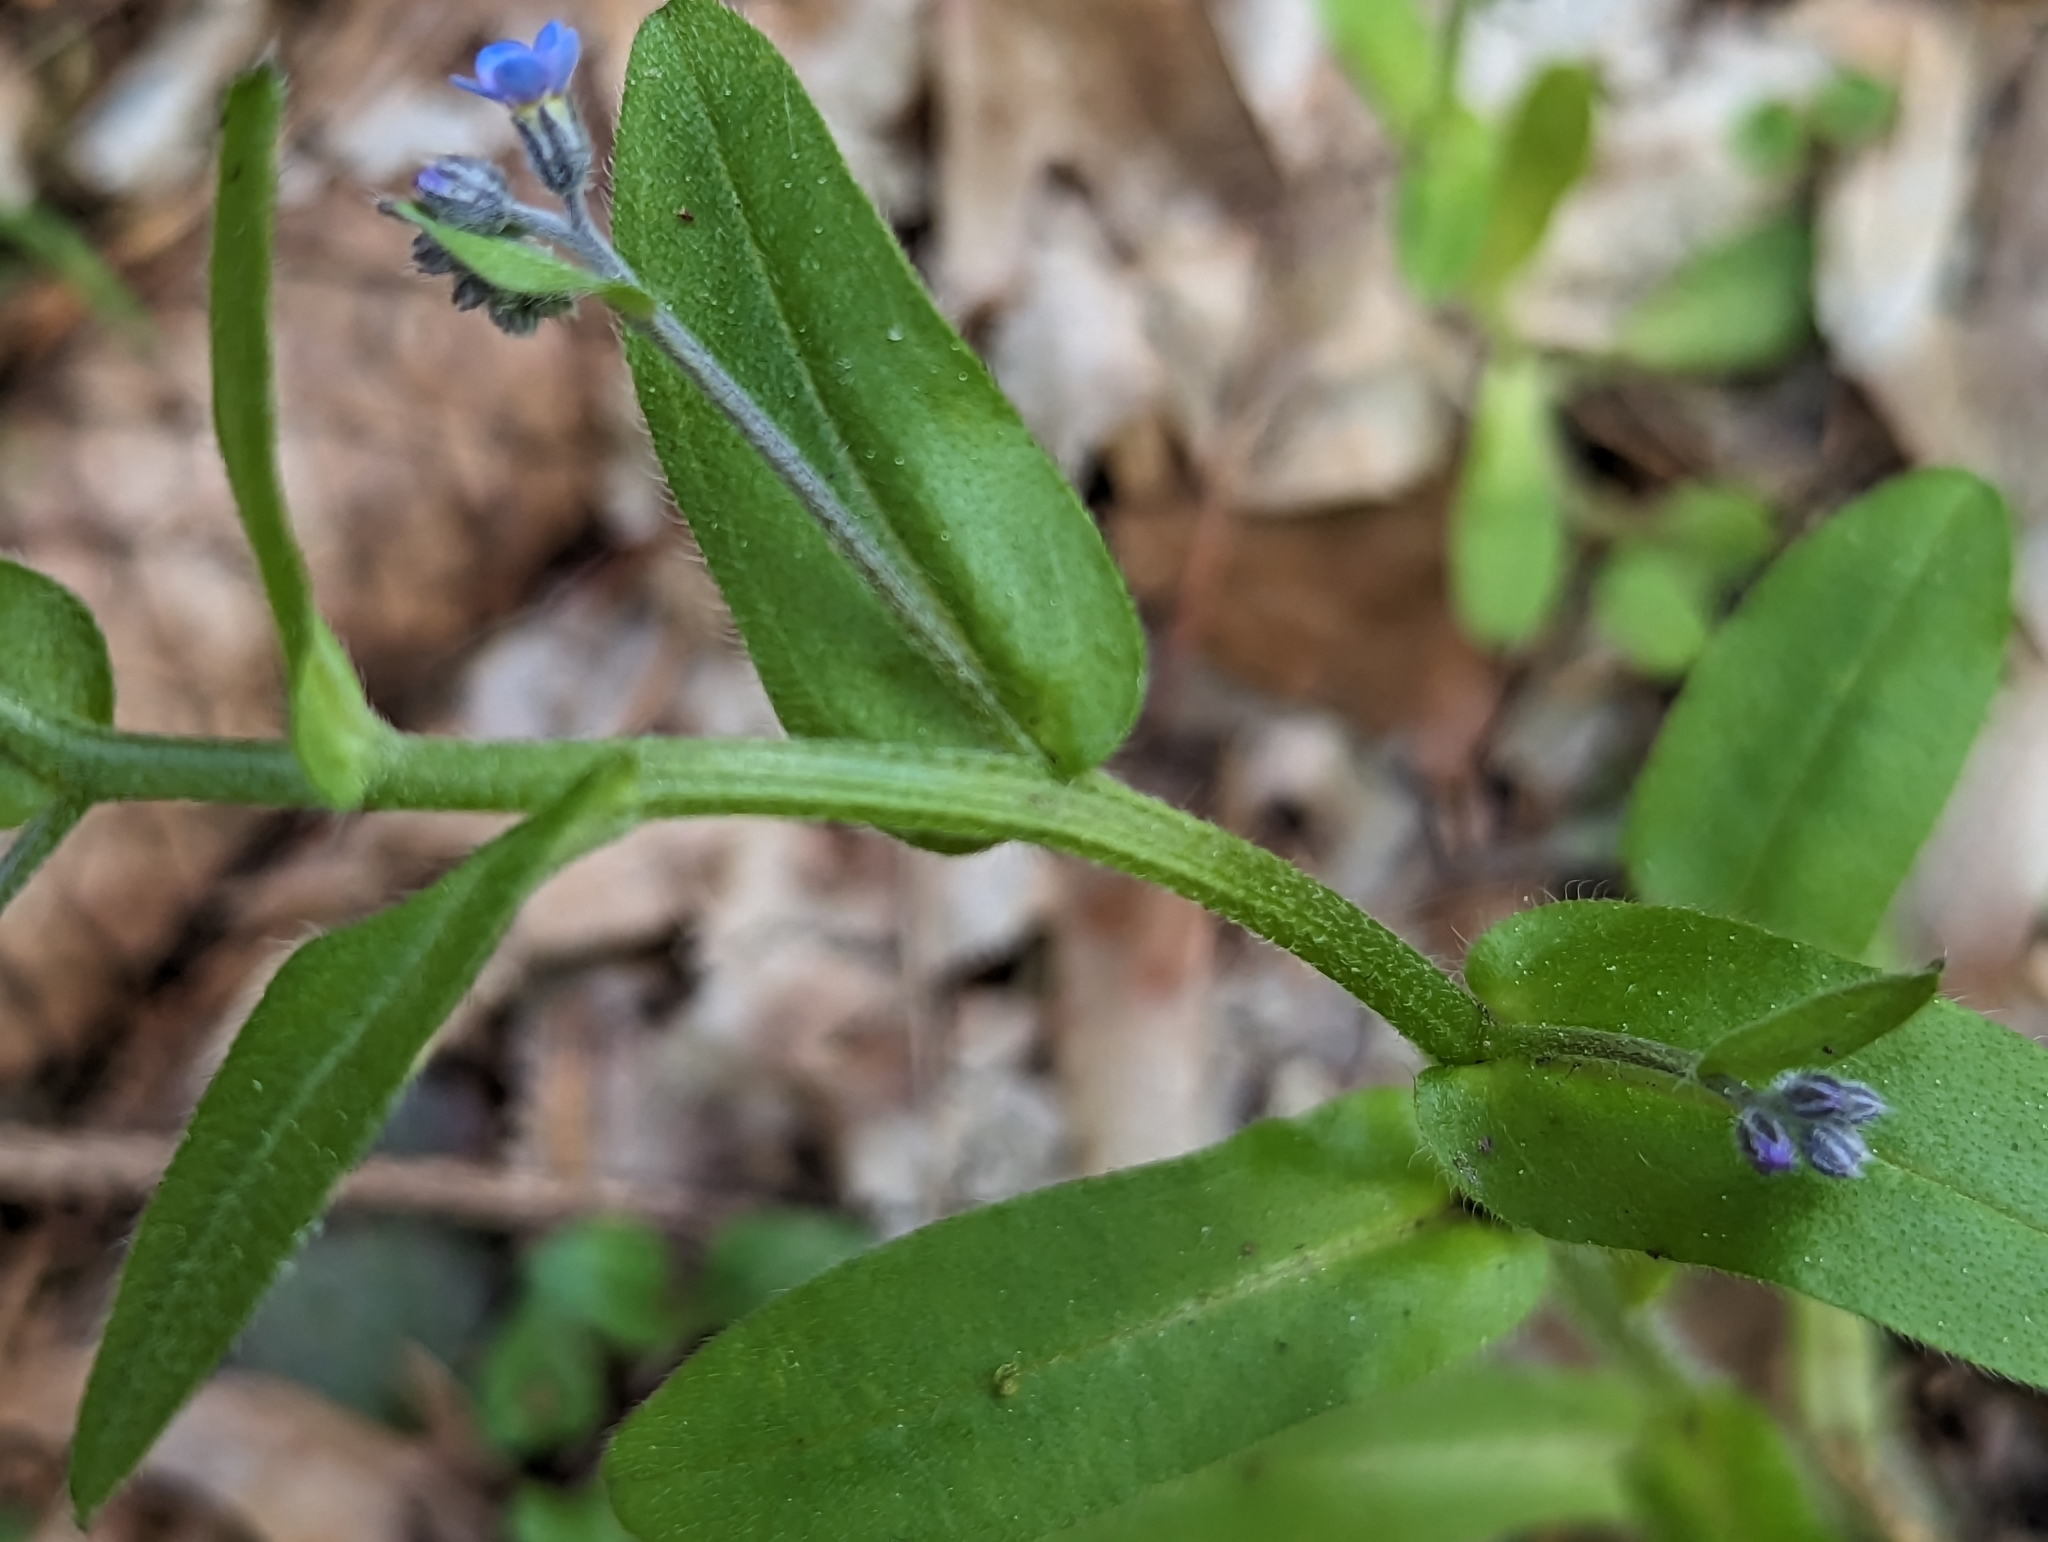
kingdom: Plantae
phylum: Tracheophyta
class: Magnoliopsida
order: Boraginales
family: Boraginaceae
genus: Myosotis
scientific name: Myosotis sylvatica
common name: Wood forget-me-not
